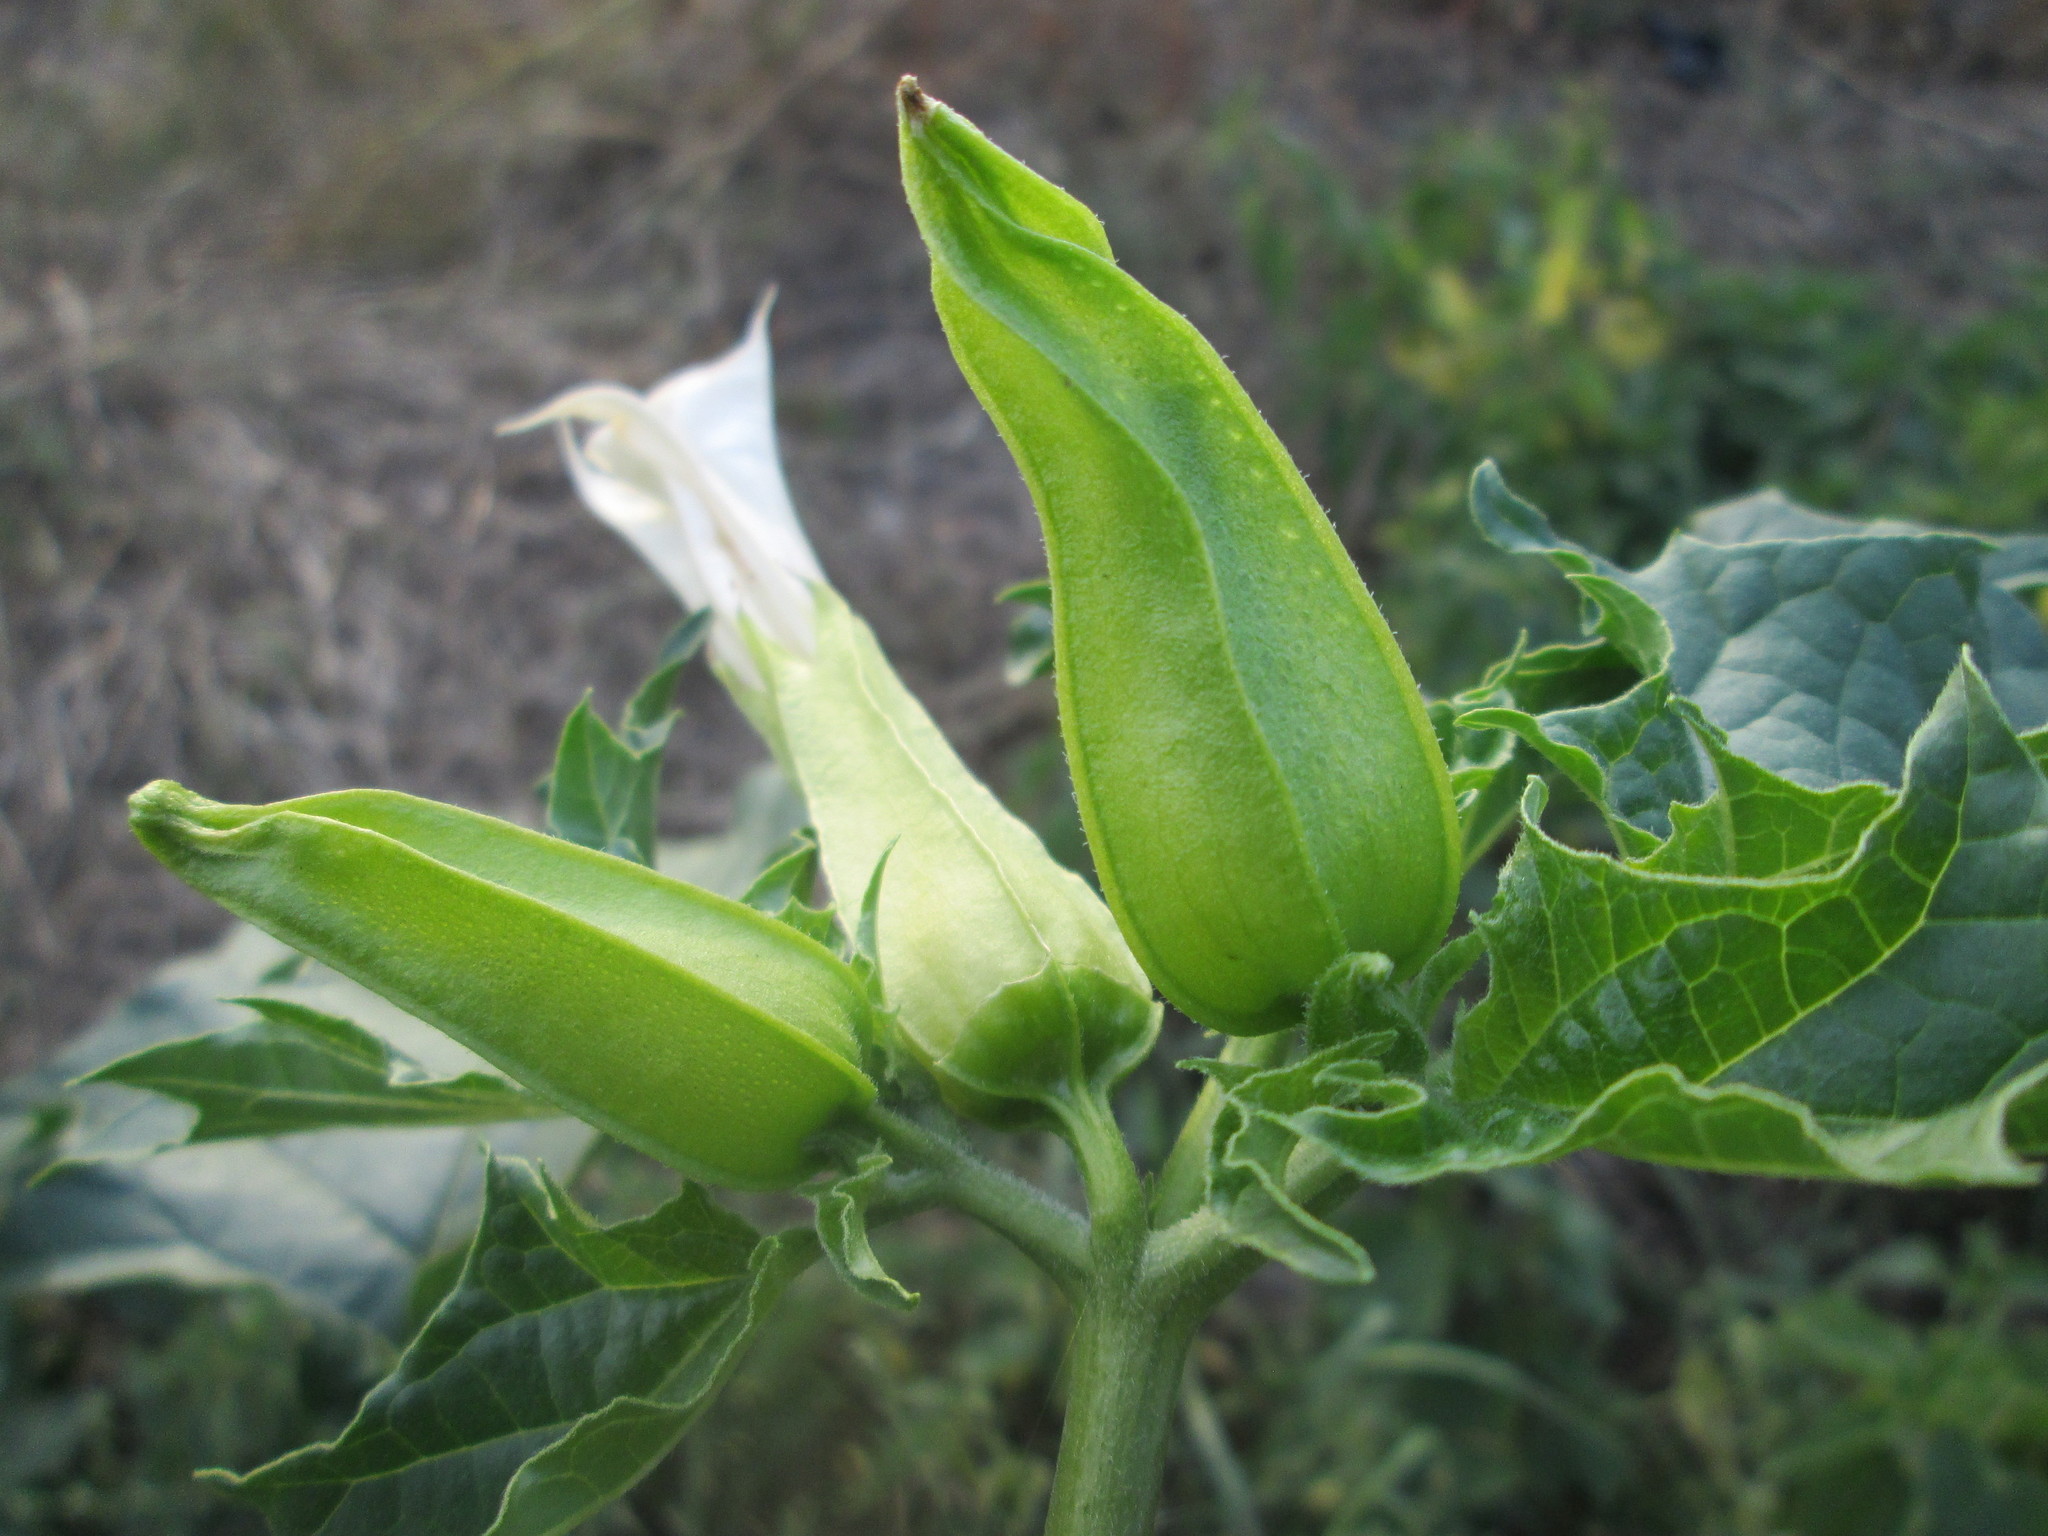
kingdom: Plantae
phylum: Tracheophyta
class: Magnoliopsida
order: Solanales
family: Solanaceae
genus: Datura
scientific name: Datura stramonium
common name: Thorn-apple
